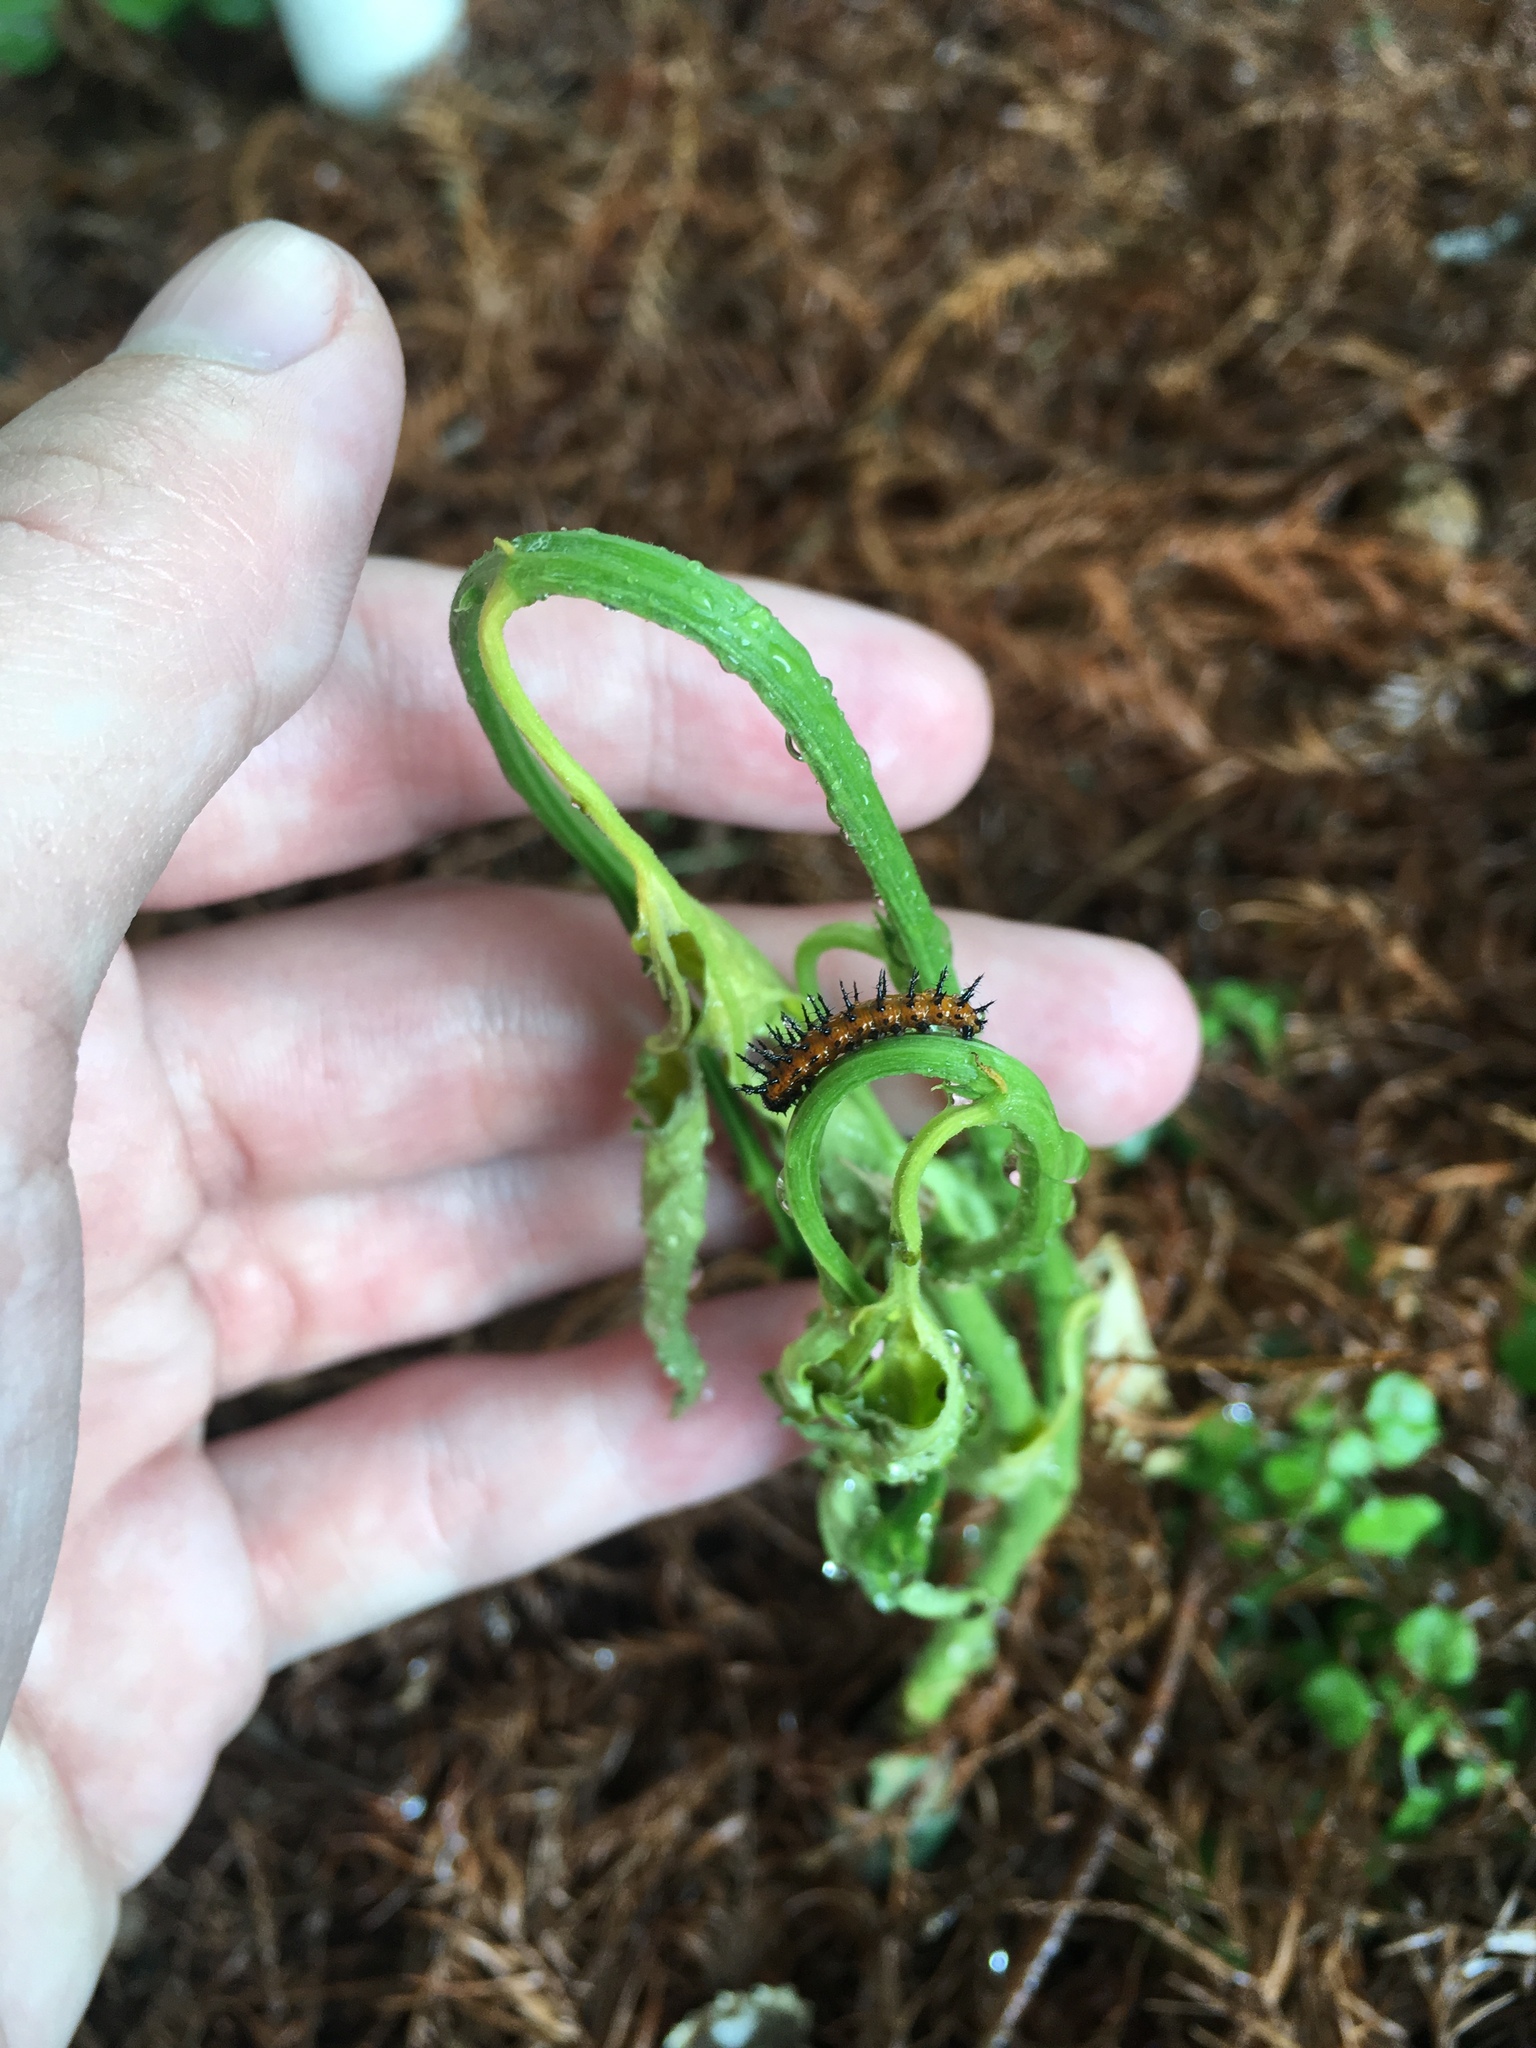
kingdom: Animalia
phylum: Arthropoda
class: Insecta
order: Lepidoptera
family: Nymphalidae
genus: Dione
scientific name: Dione vanillae
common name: Gulf fritillary
